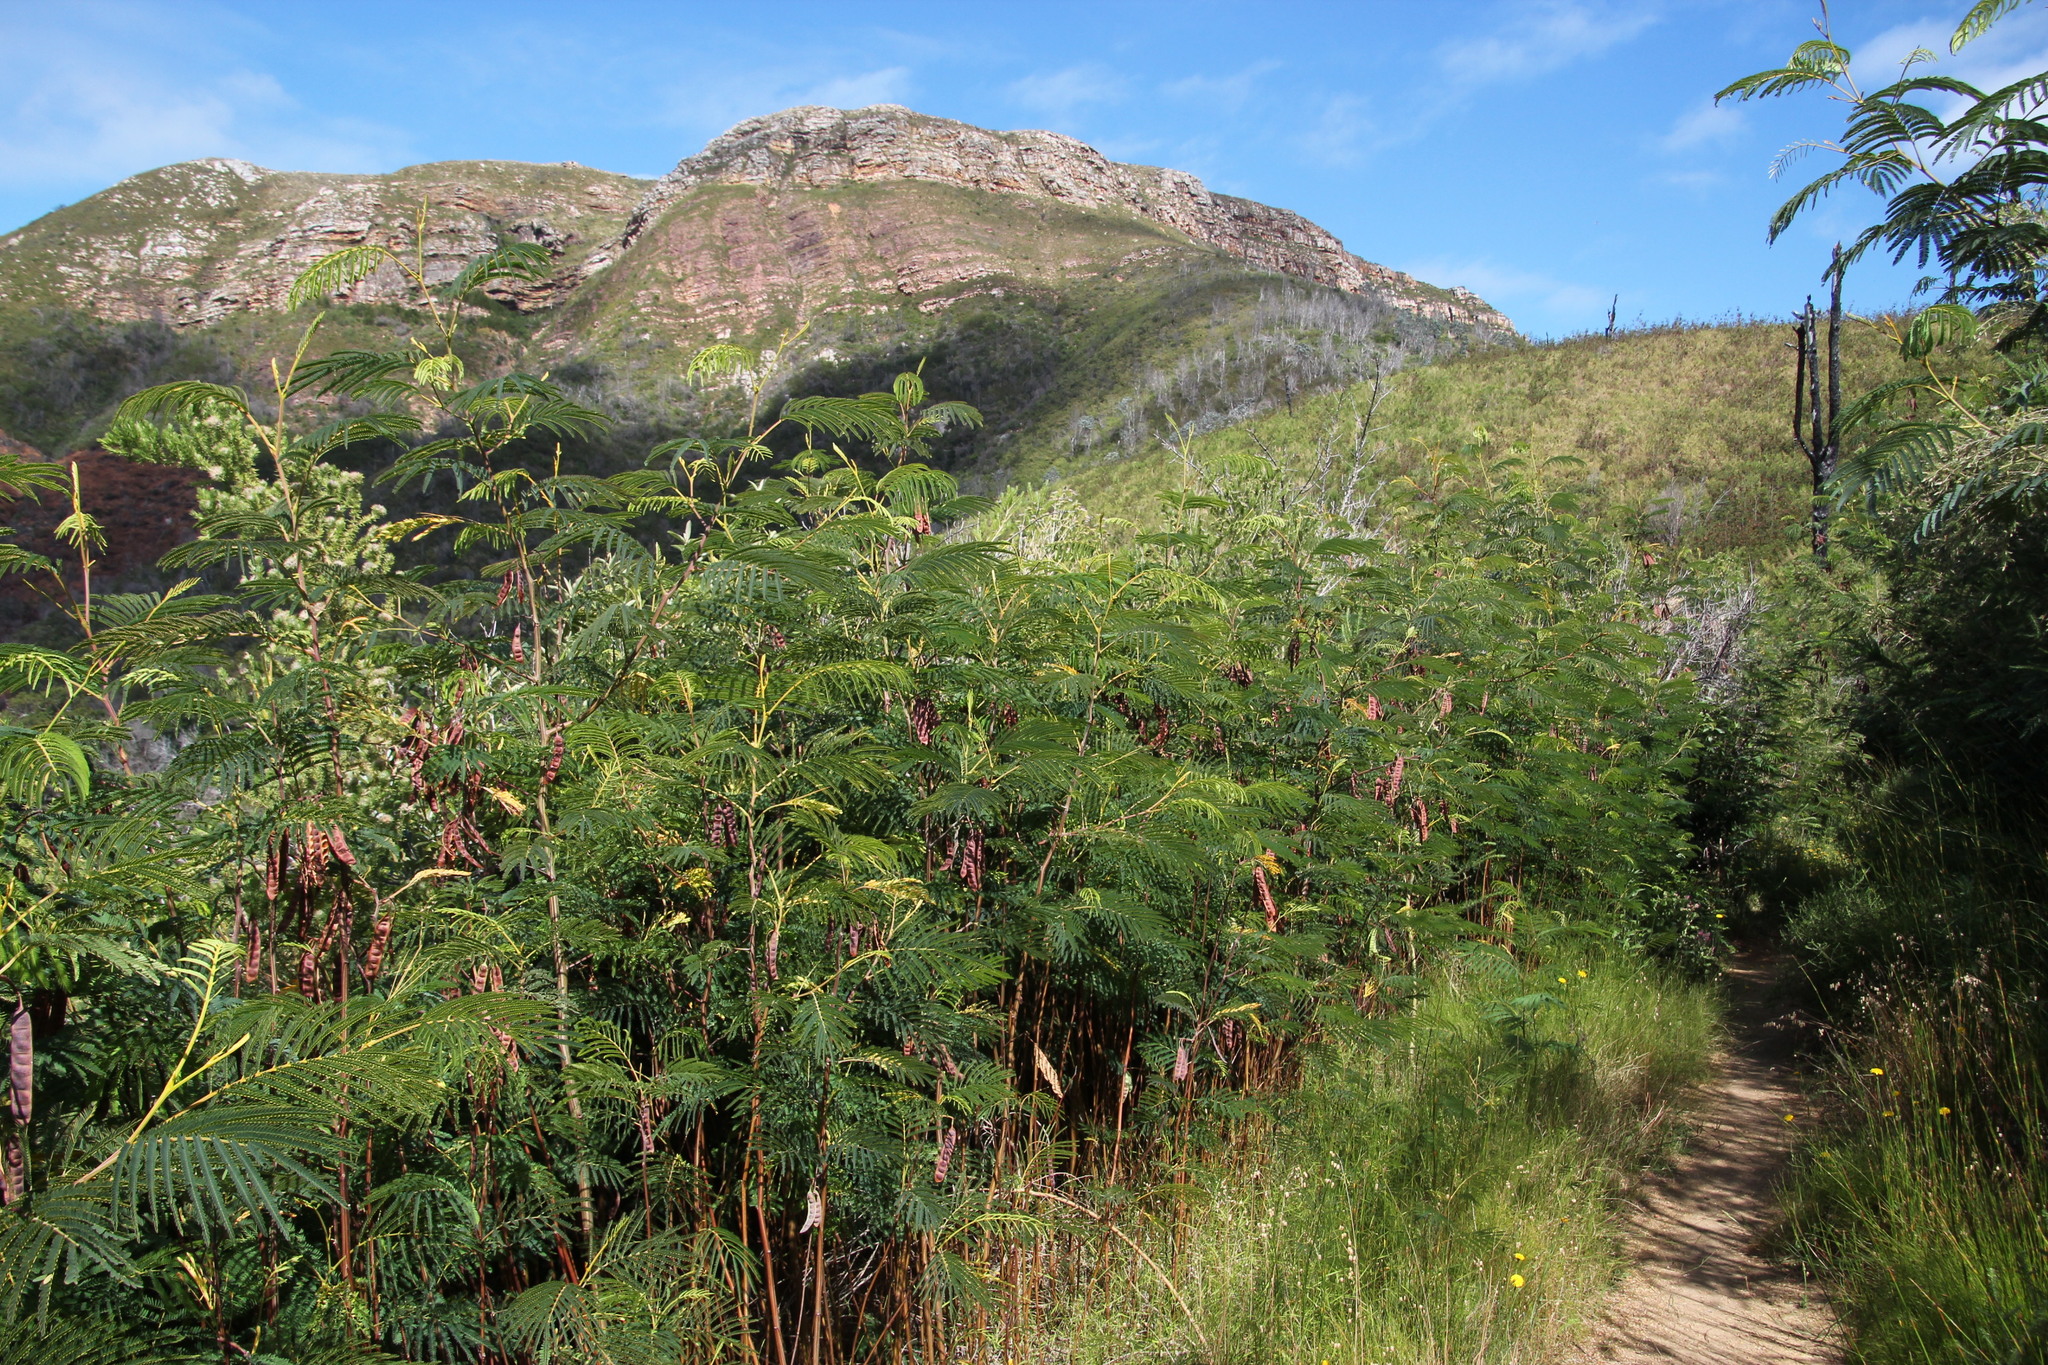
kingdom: Plantae
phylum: Tracheophyta
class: Magnoliopsida
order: Dipsacales
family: Caprifoliaceae
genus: Centranthus
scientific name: Centranthus ruber
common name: Red valerian
